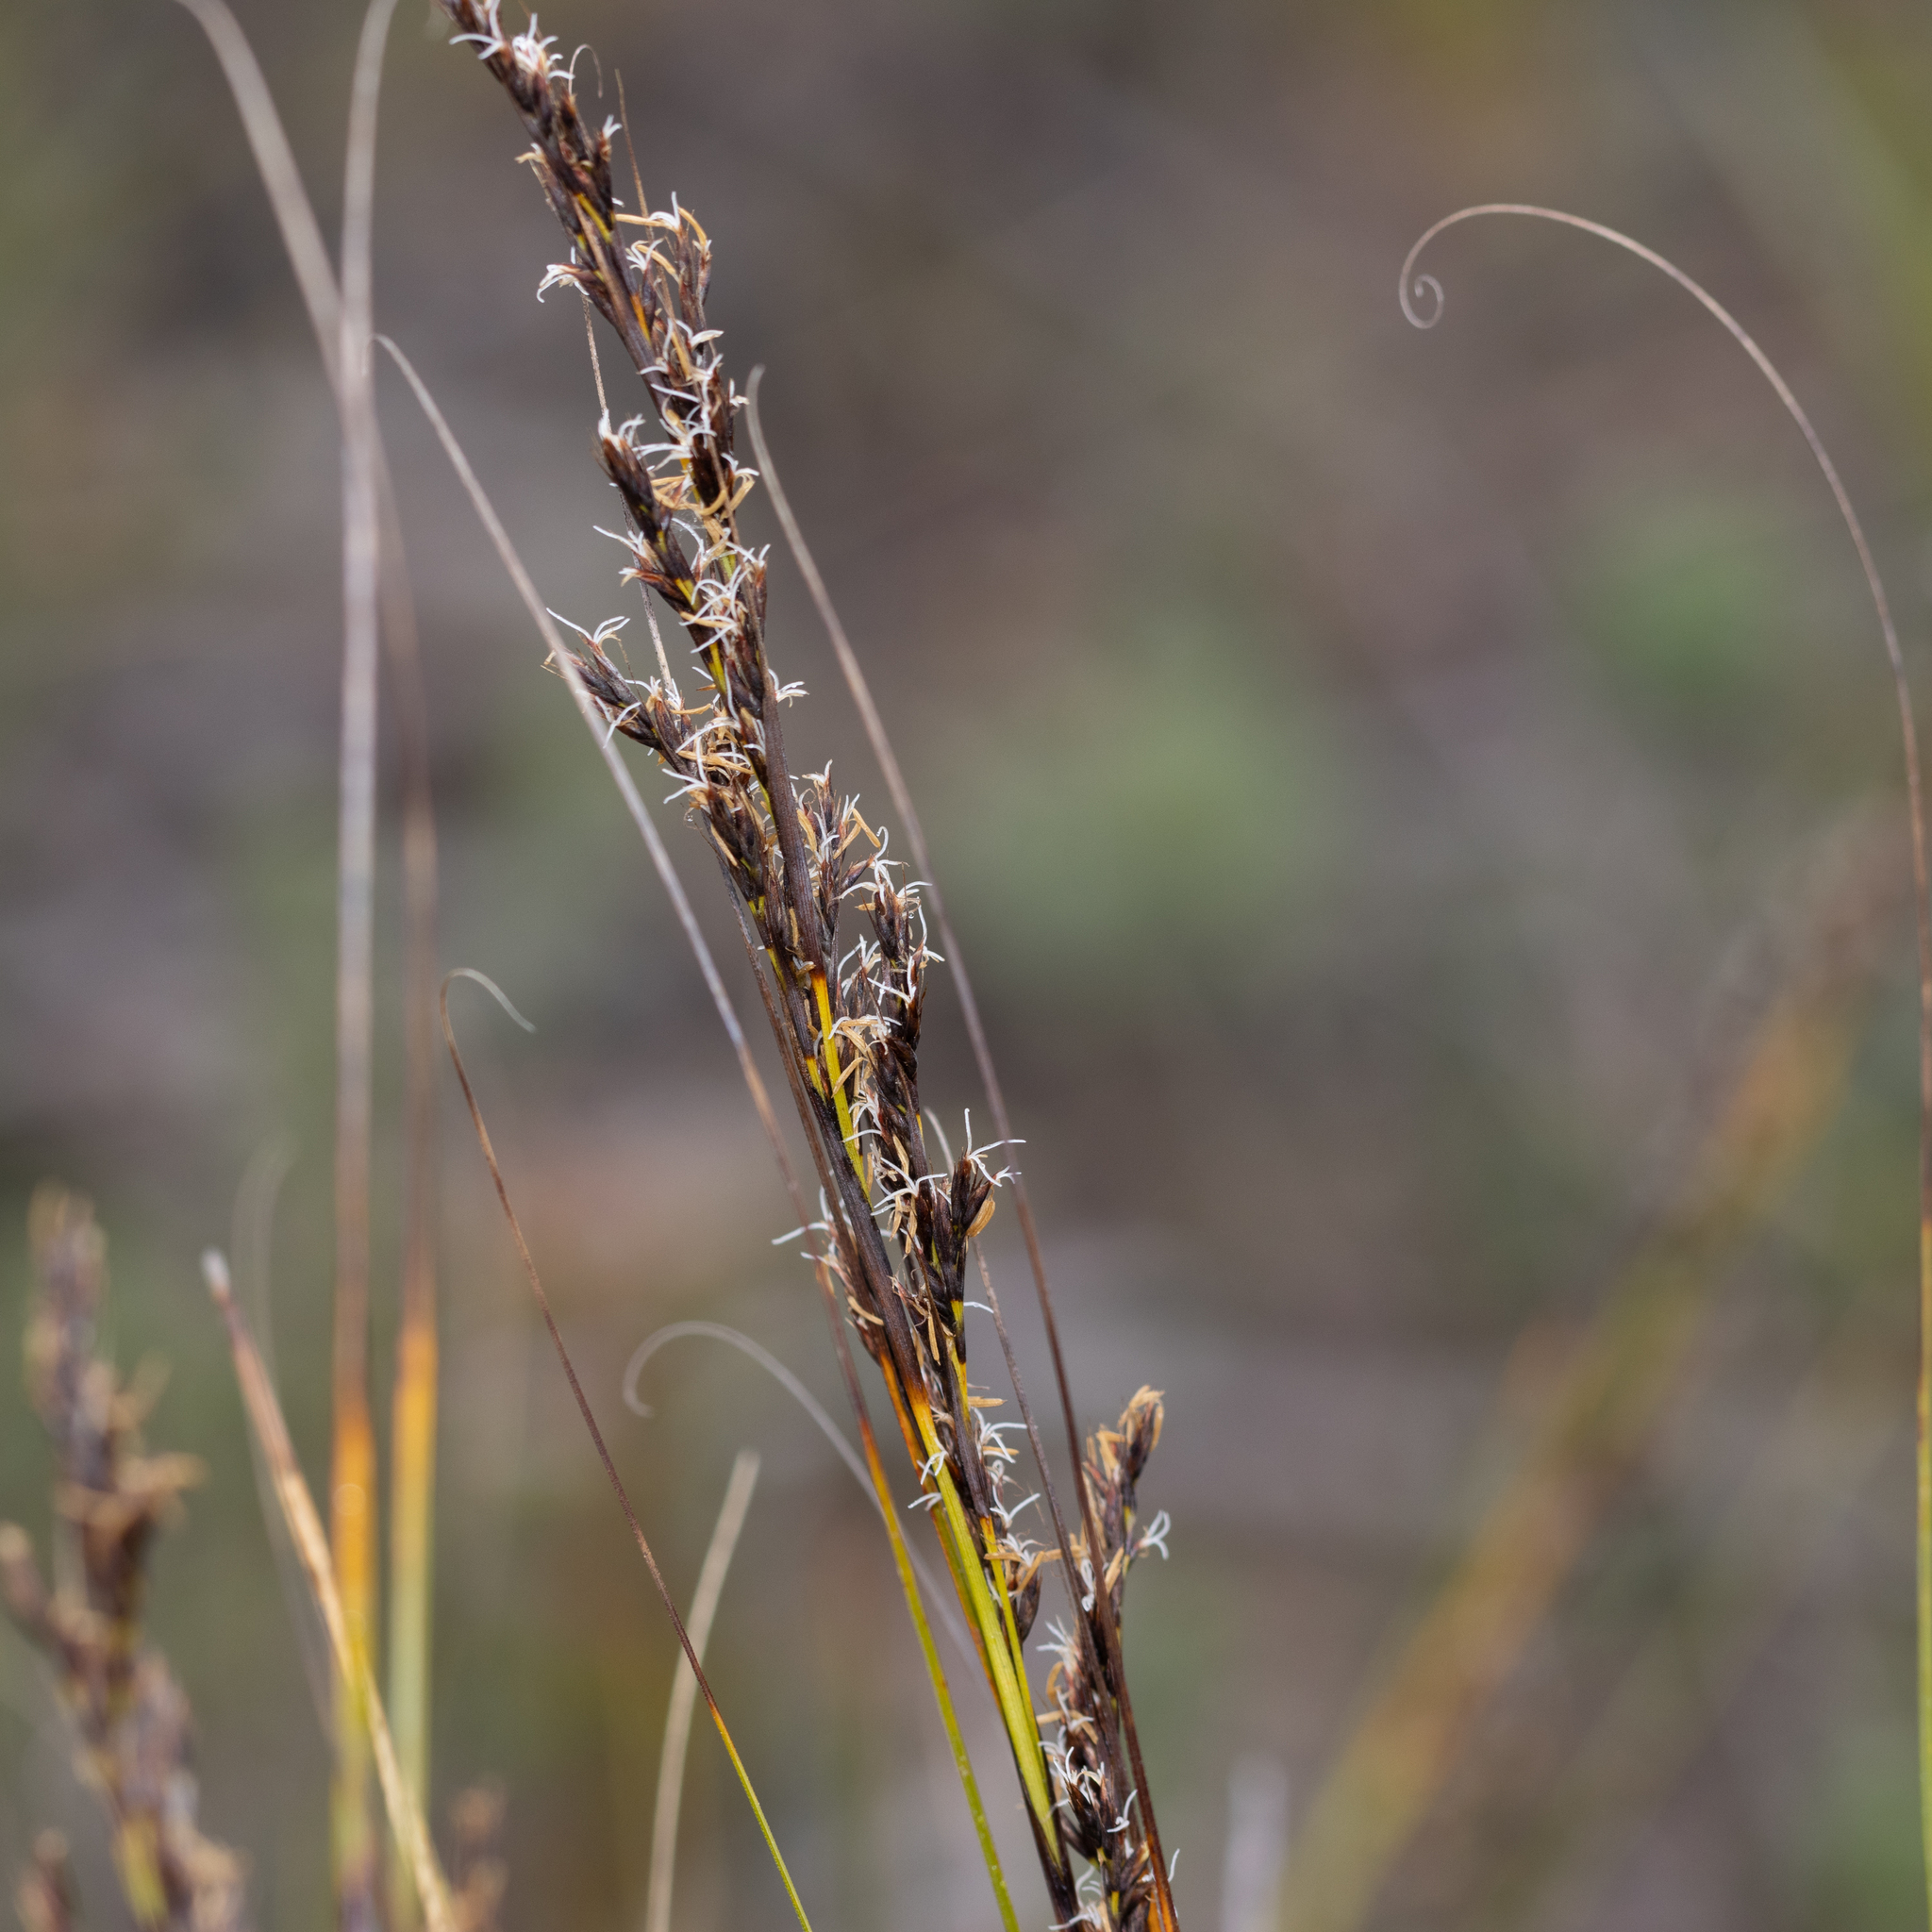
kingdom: Plantae
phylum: Tracheophyta
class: Liliopsida
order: Poales
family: Cyperaceae
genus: Gahnia
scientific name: Gahnia ancistrophylla
